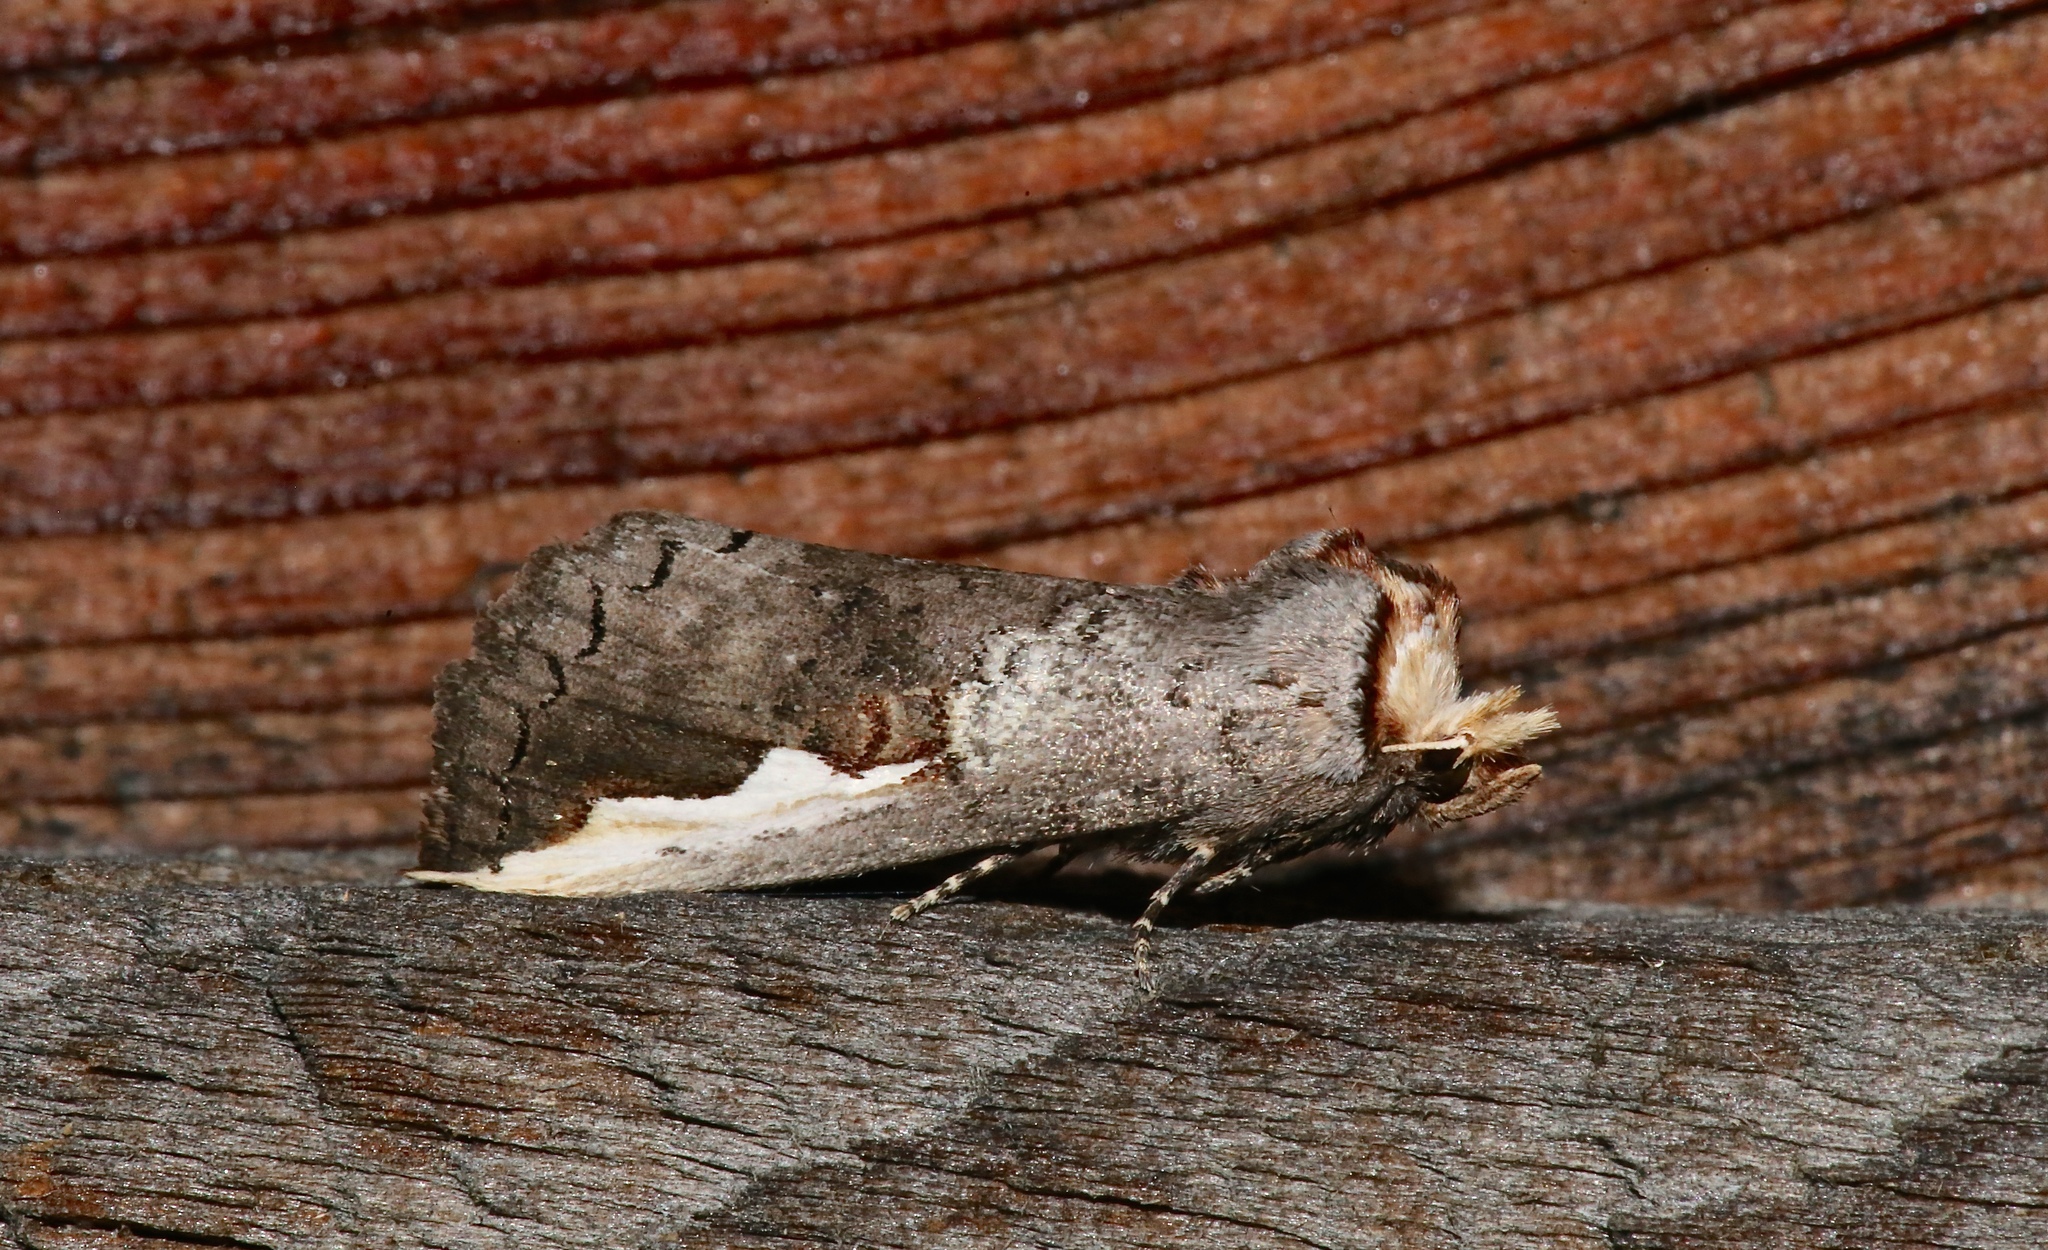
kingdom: Animalia
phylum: Arthropoda
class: Insecta
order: Lepidoptera
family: Notodontidae
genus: Symmerista
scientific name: Symmerista
